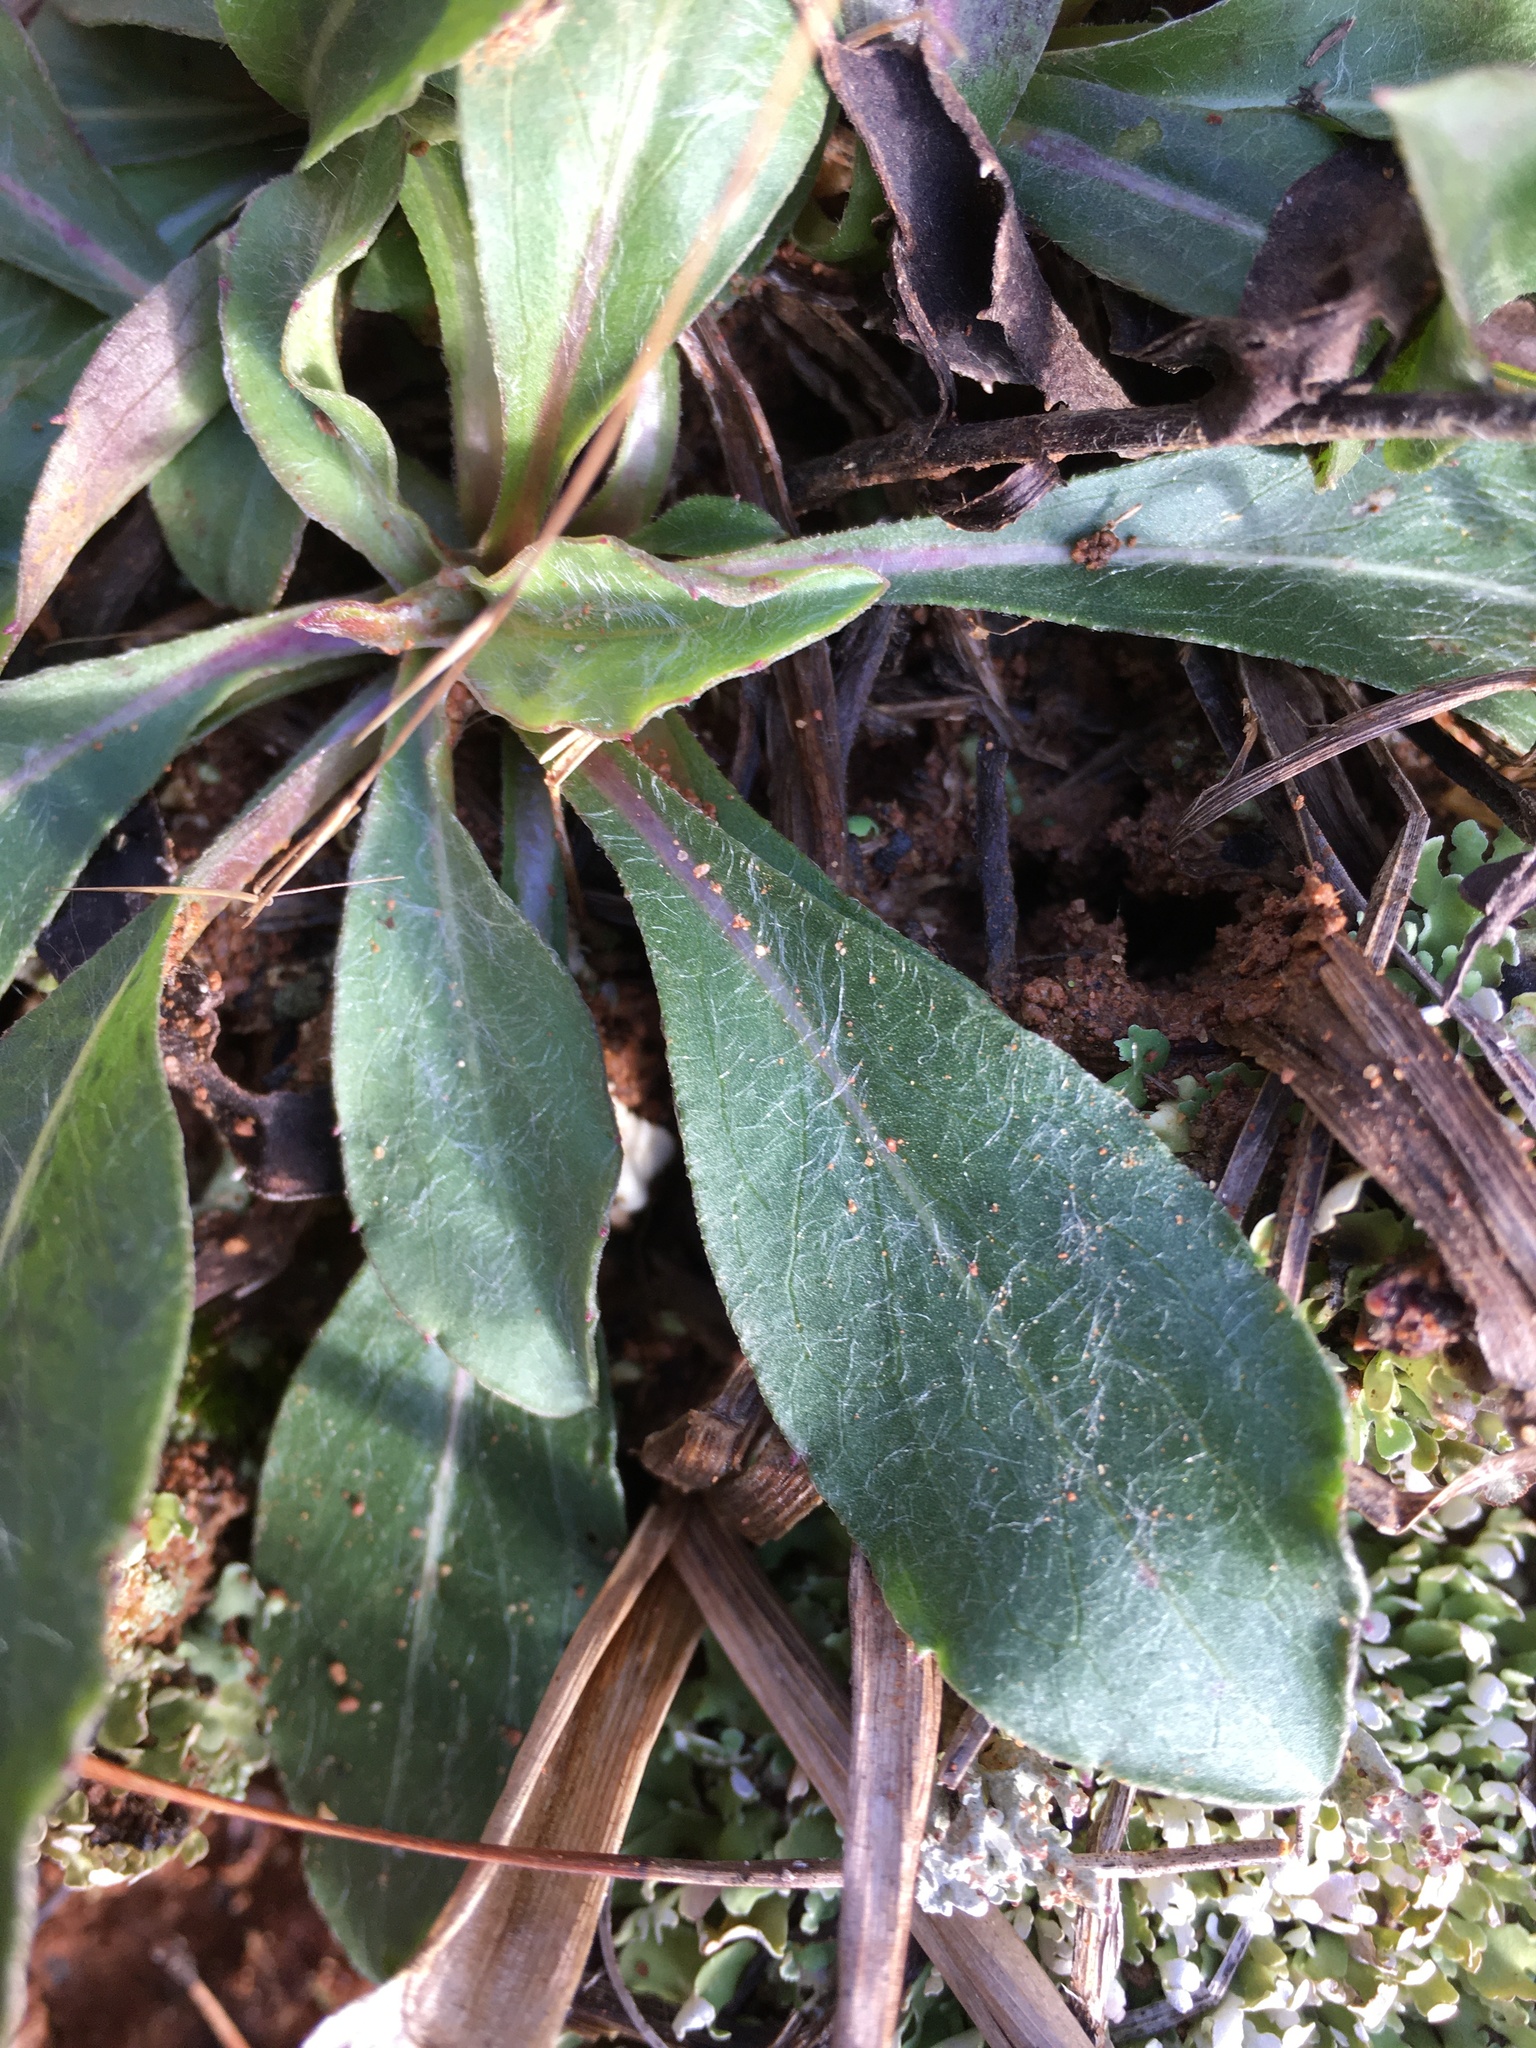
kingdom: Plantae
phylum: Tracheophyta
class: Magnoliopsida
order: Asterales
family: Asteraceae
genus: Chrysopsis
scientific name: Chrysopsis mariana
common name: Maryland golden-aster
